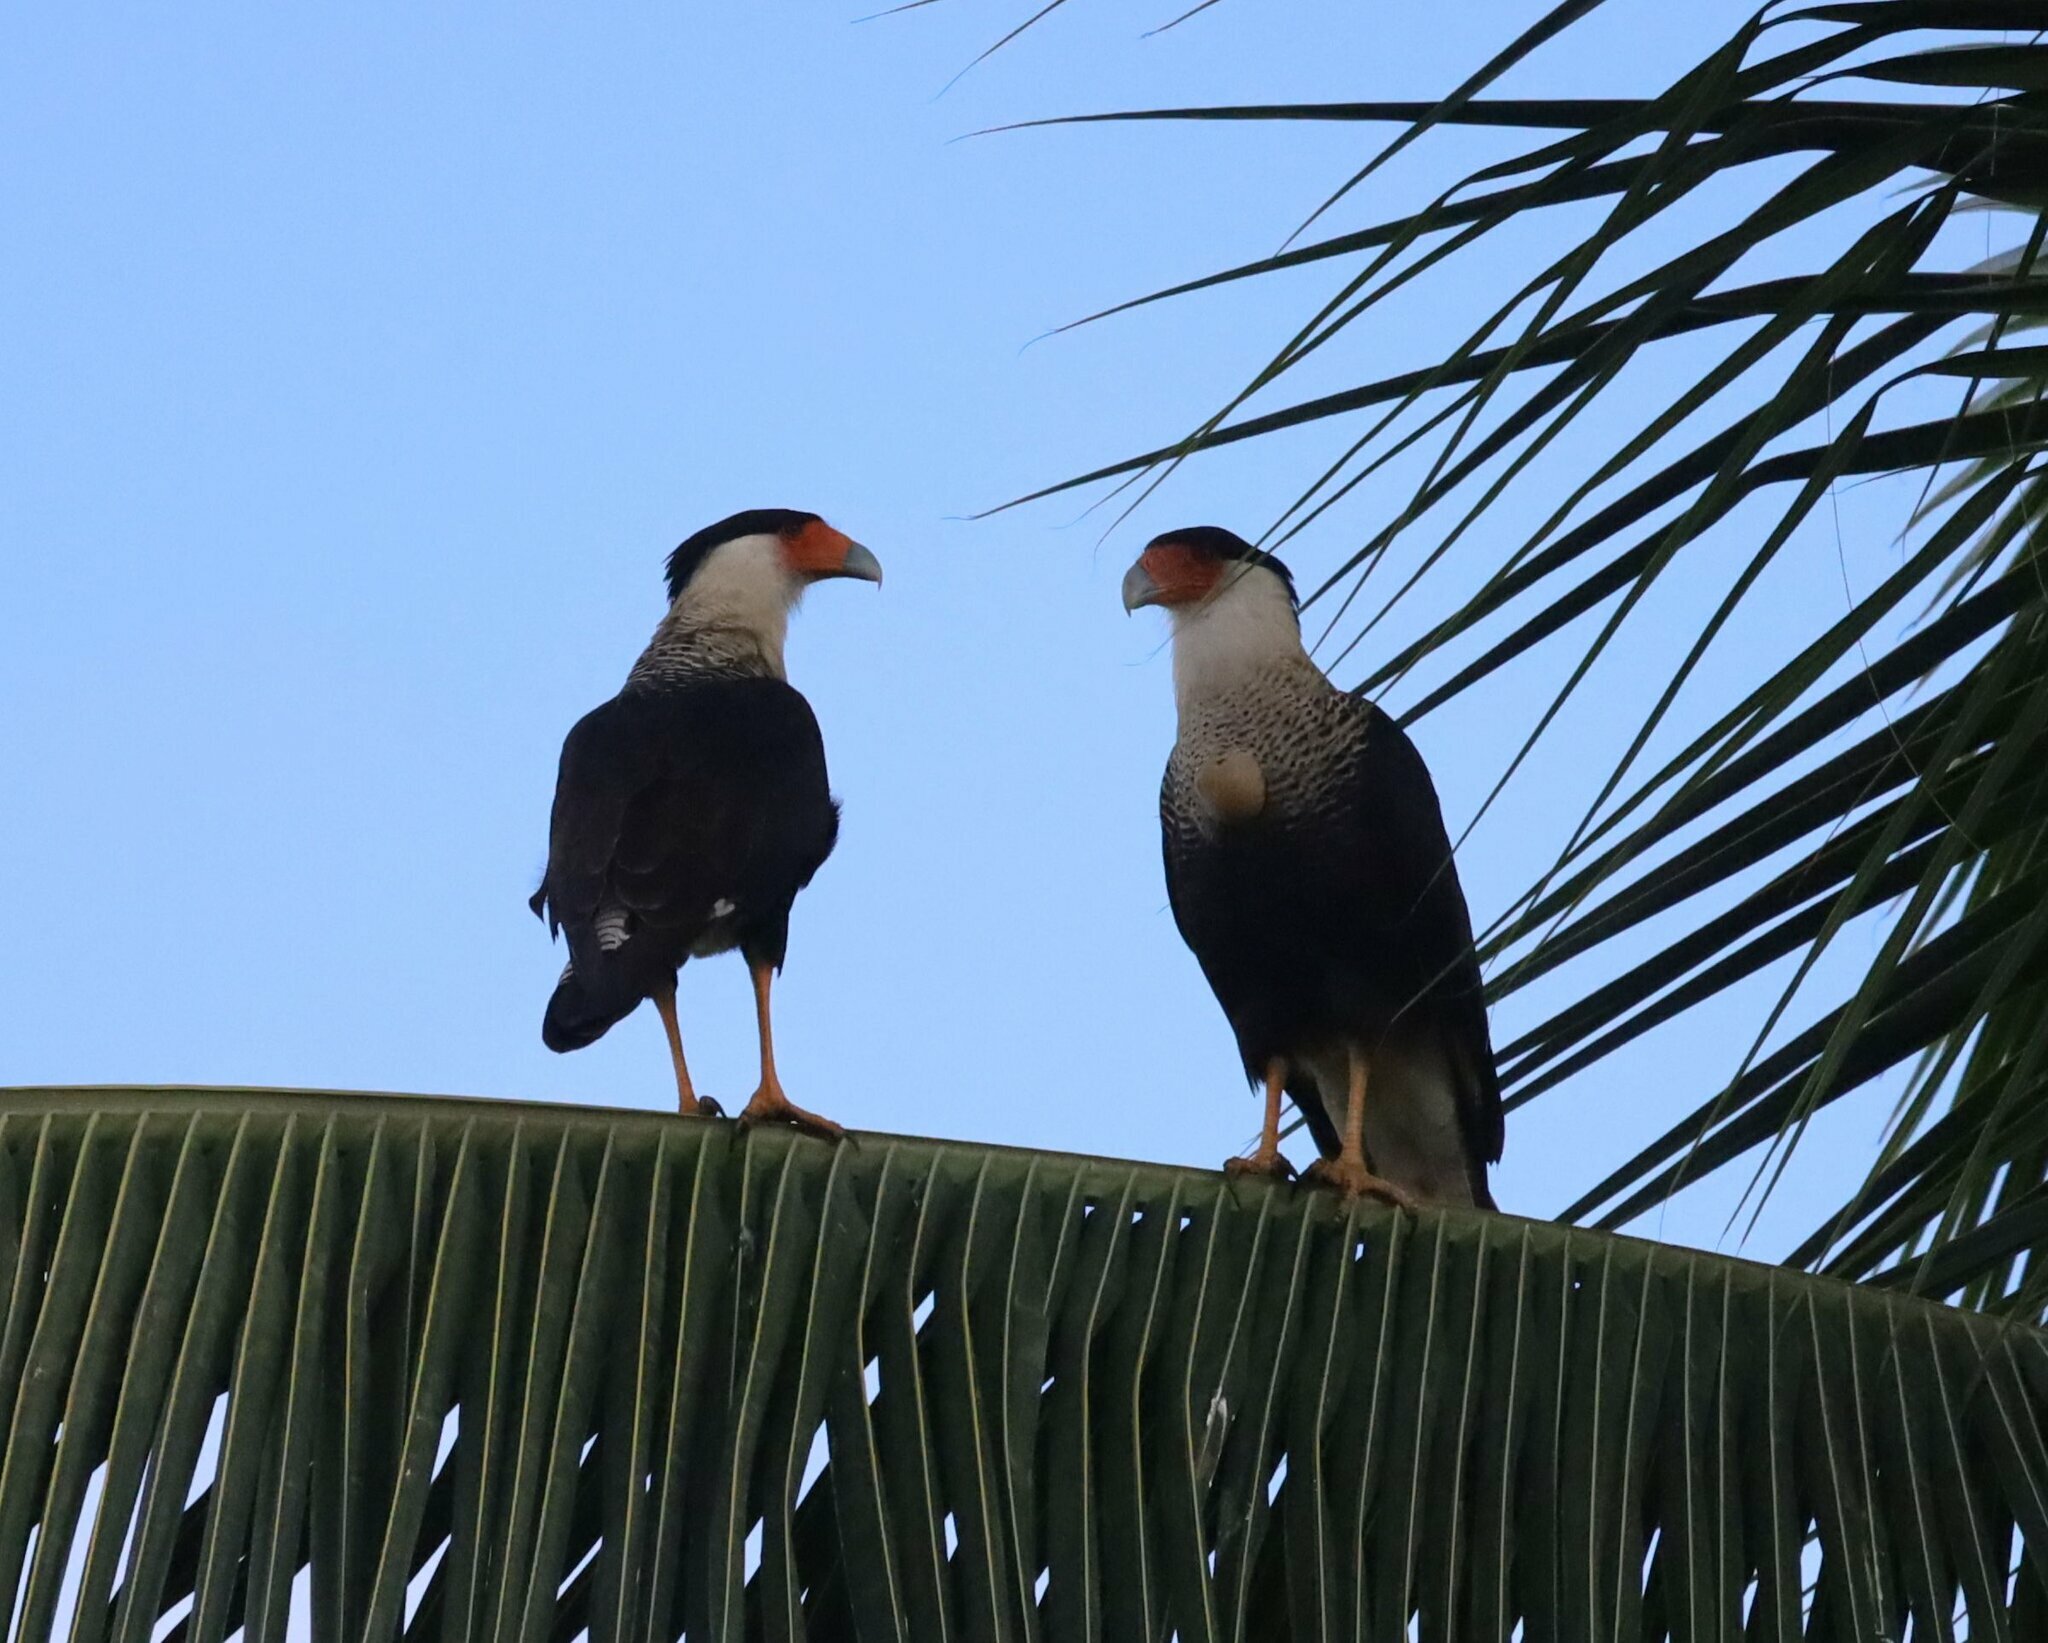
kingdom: Animalia
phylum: Chordata
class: Aves
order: Falconiformes
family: Falconidae
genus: Caracara
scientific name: Caracara plancus
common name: Southern caracara
